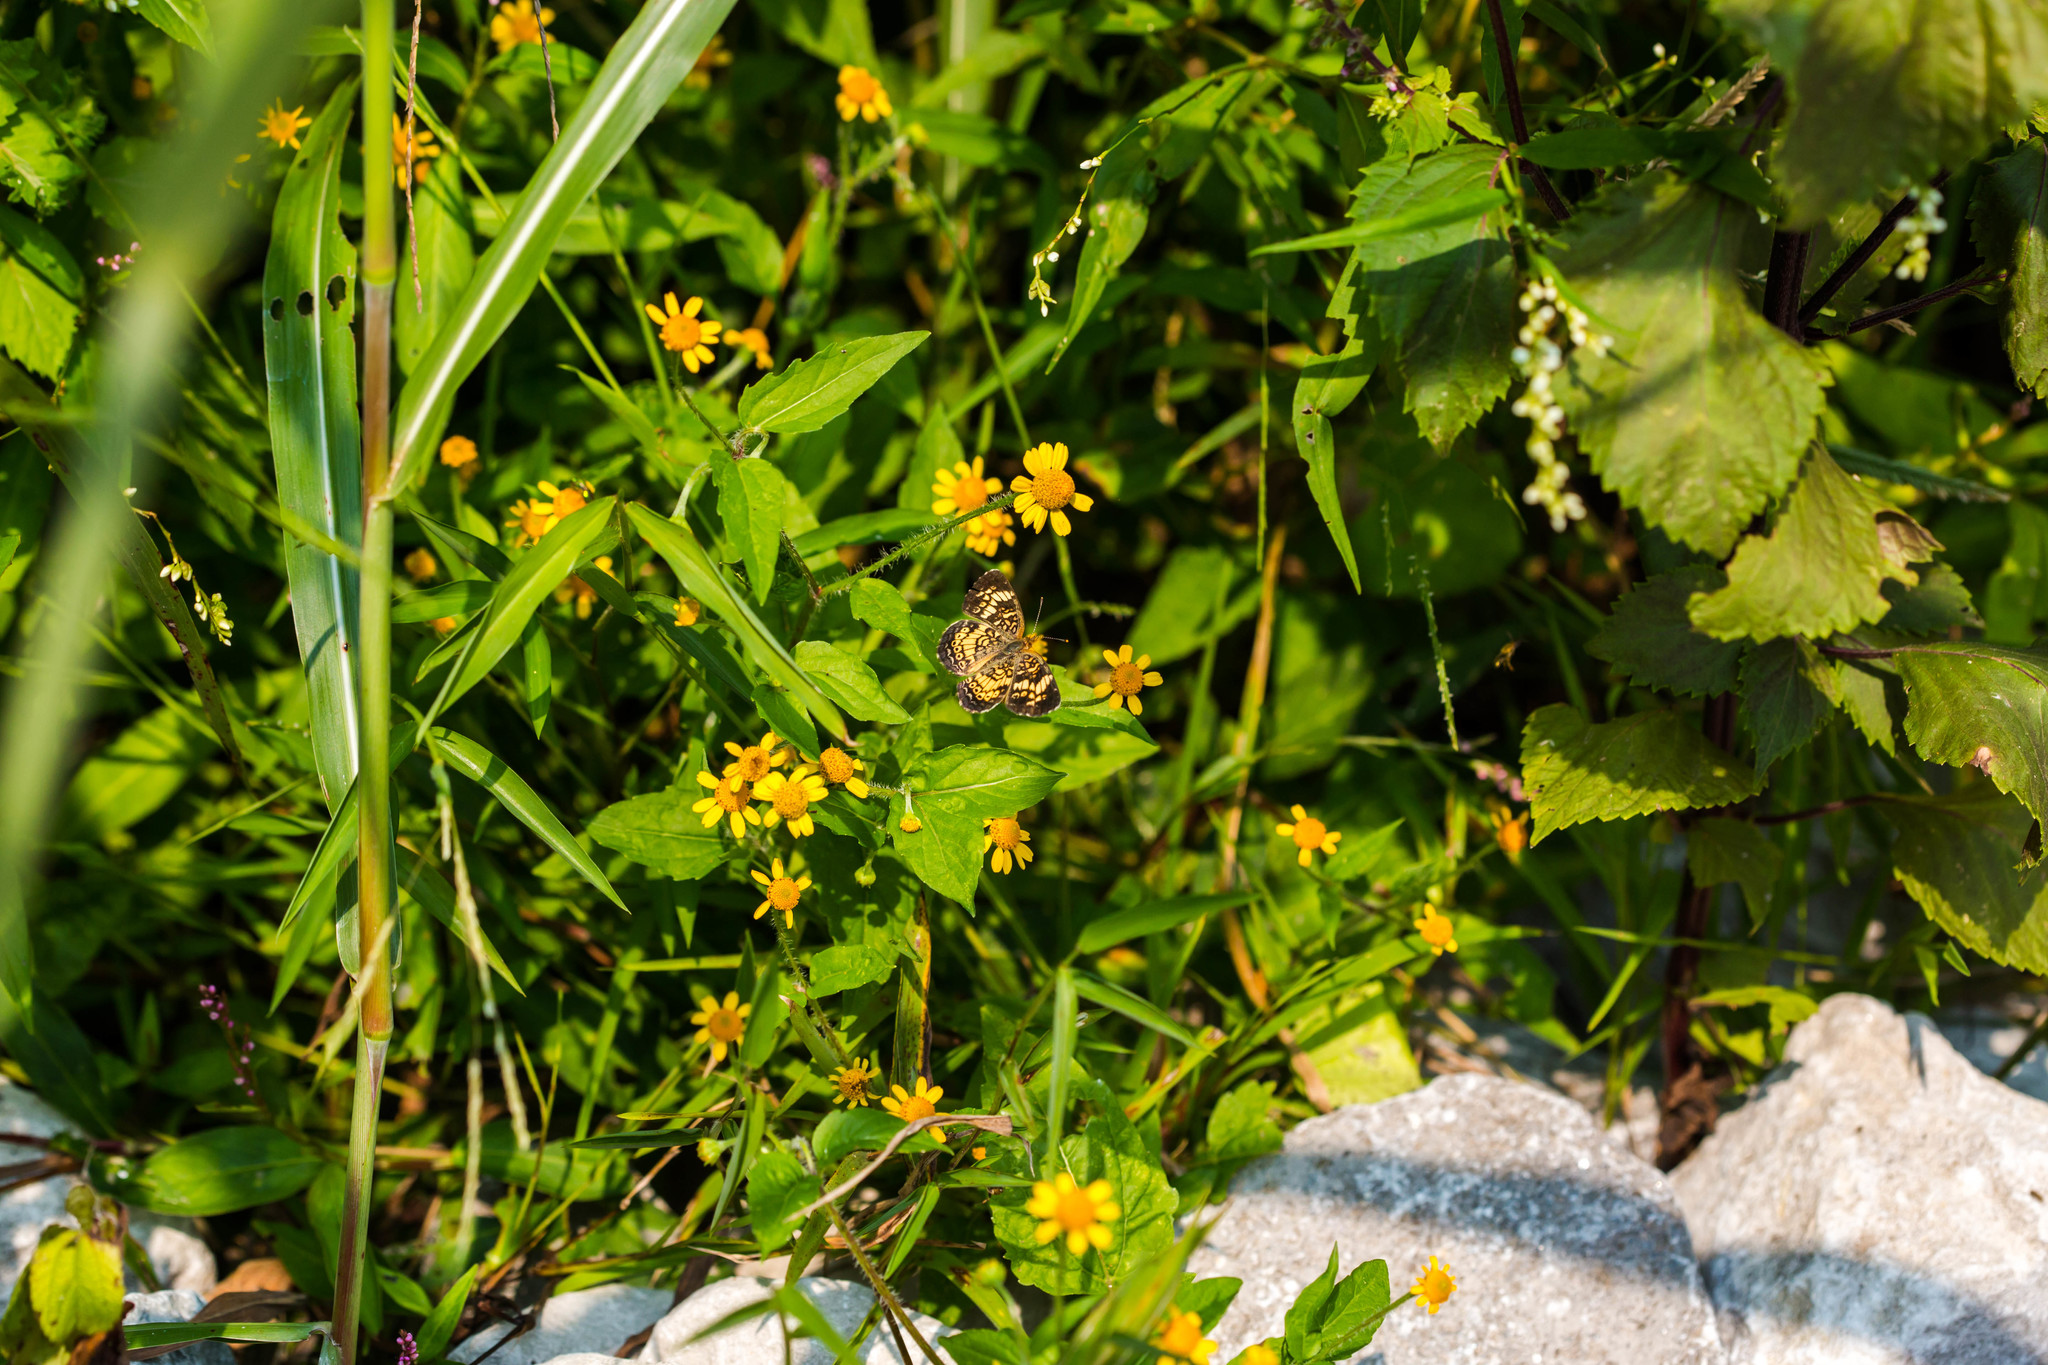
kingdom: Animalia
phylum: Arthropoda
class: Insecta
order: Lepidoptera
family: Nymphalidae
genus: Phyciodes
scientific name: Phyciodes phaon
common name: Phaon crescent
